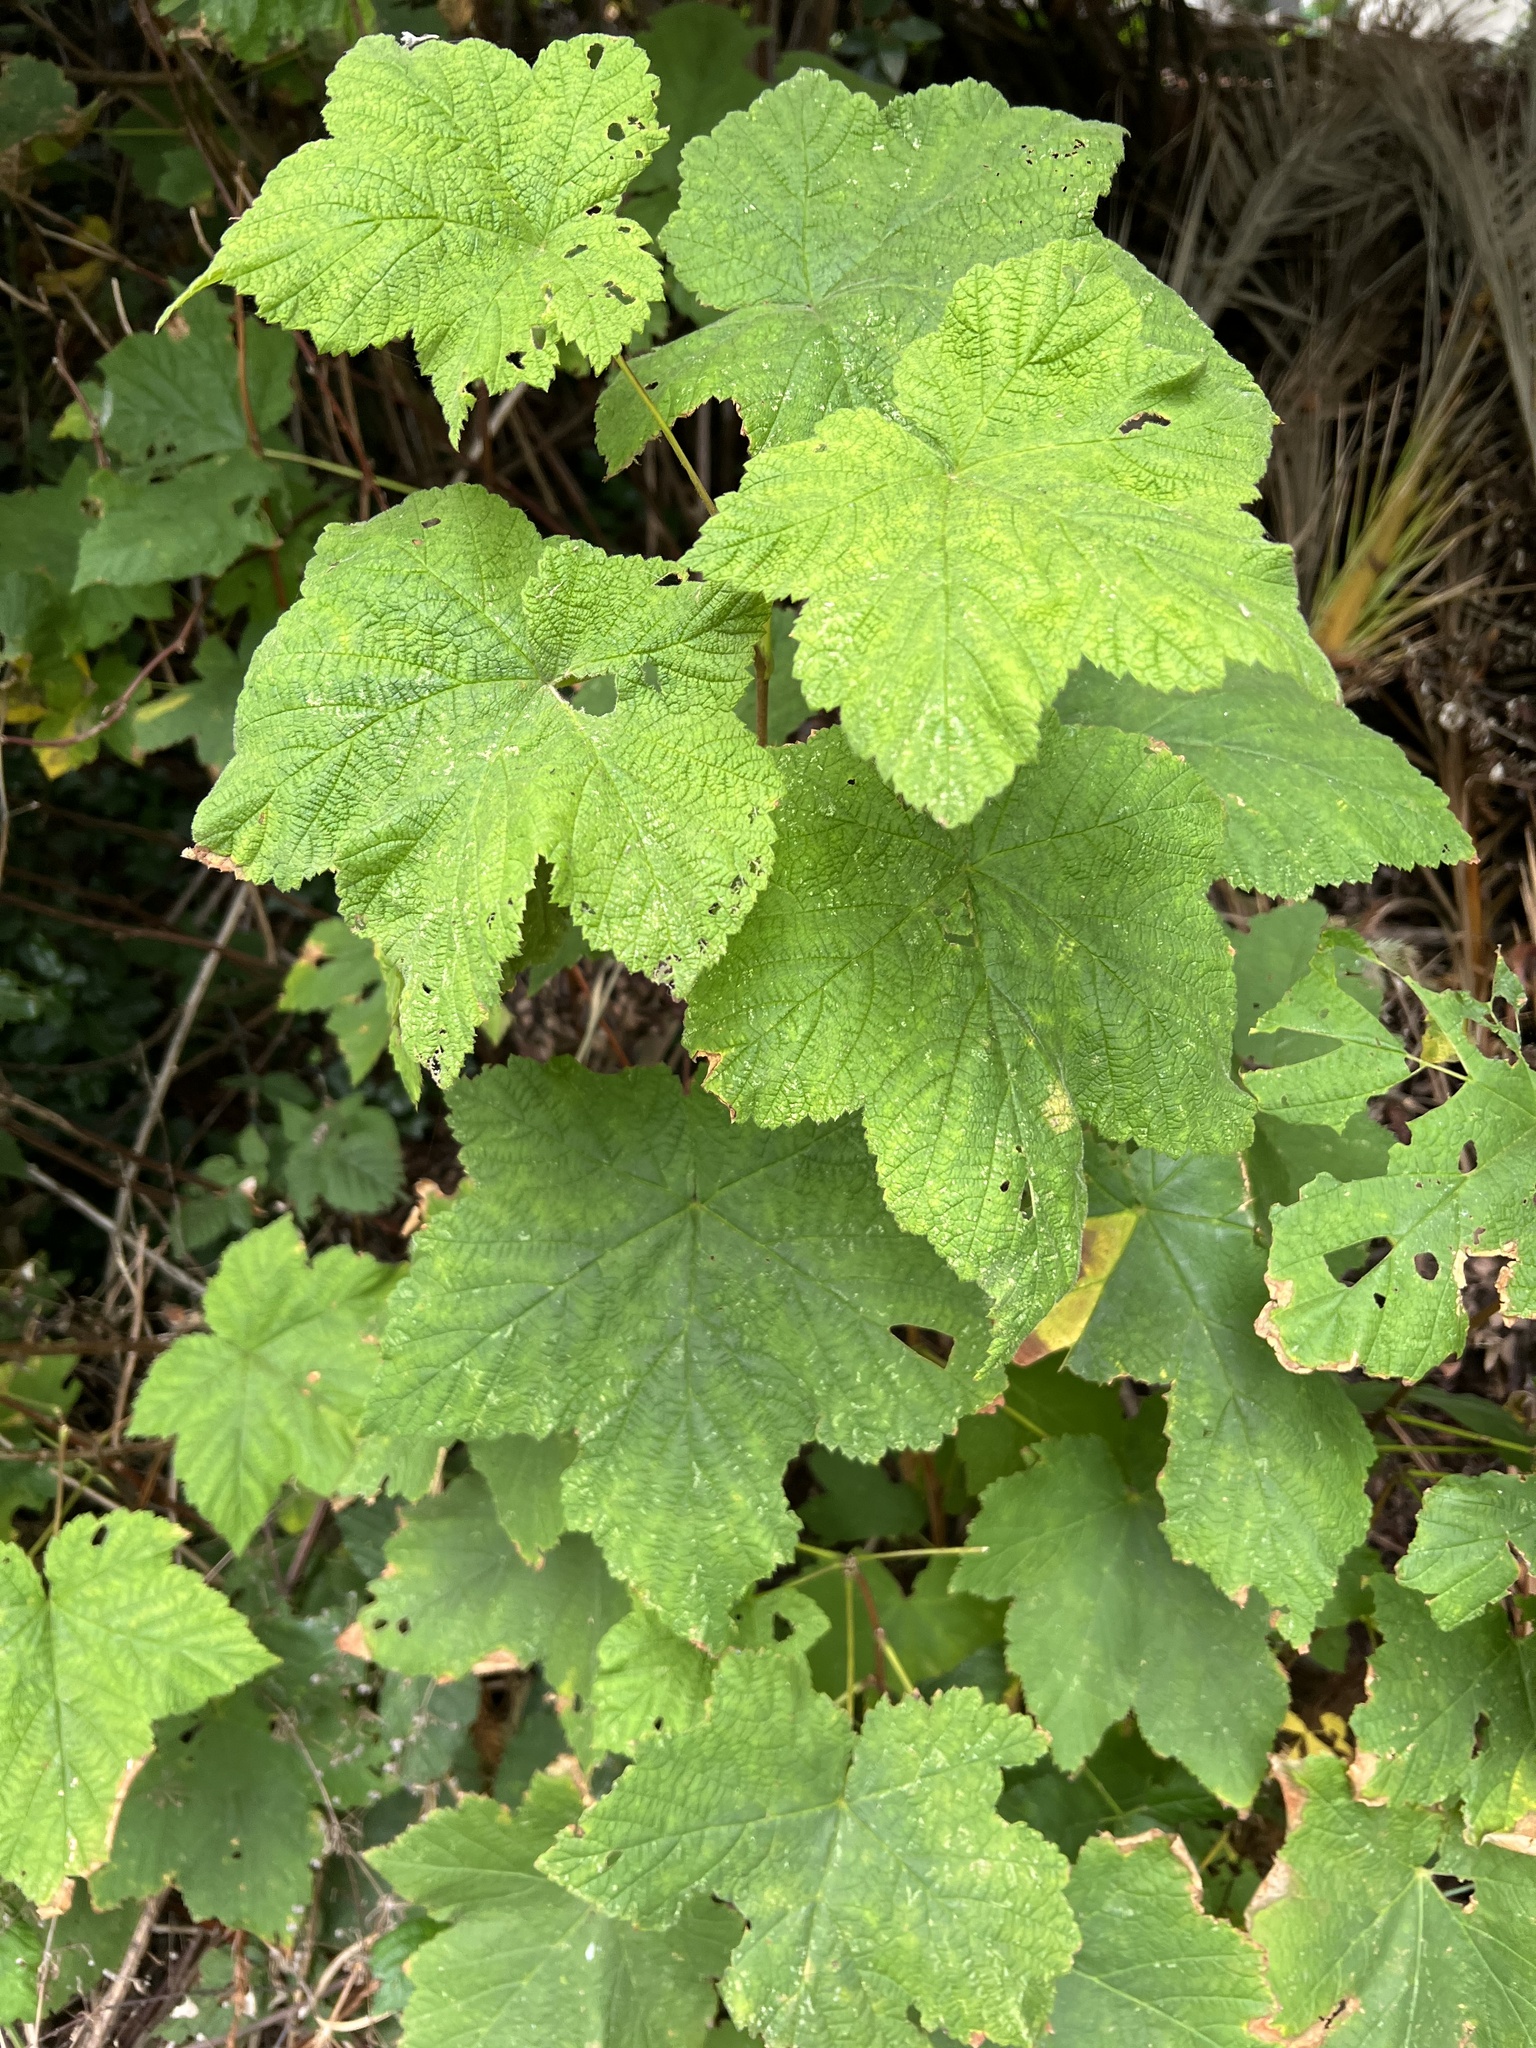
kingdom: Plantae
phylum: Tracheophyta
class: Magnoliopsida
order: Rosales
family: Rosaceae
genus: Rubus
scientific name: Rubus parviflorus
